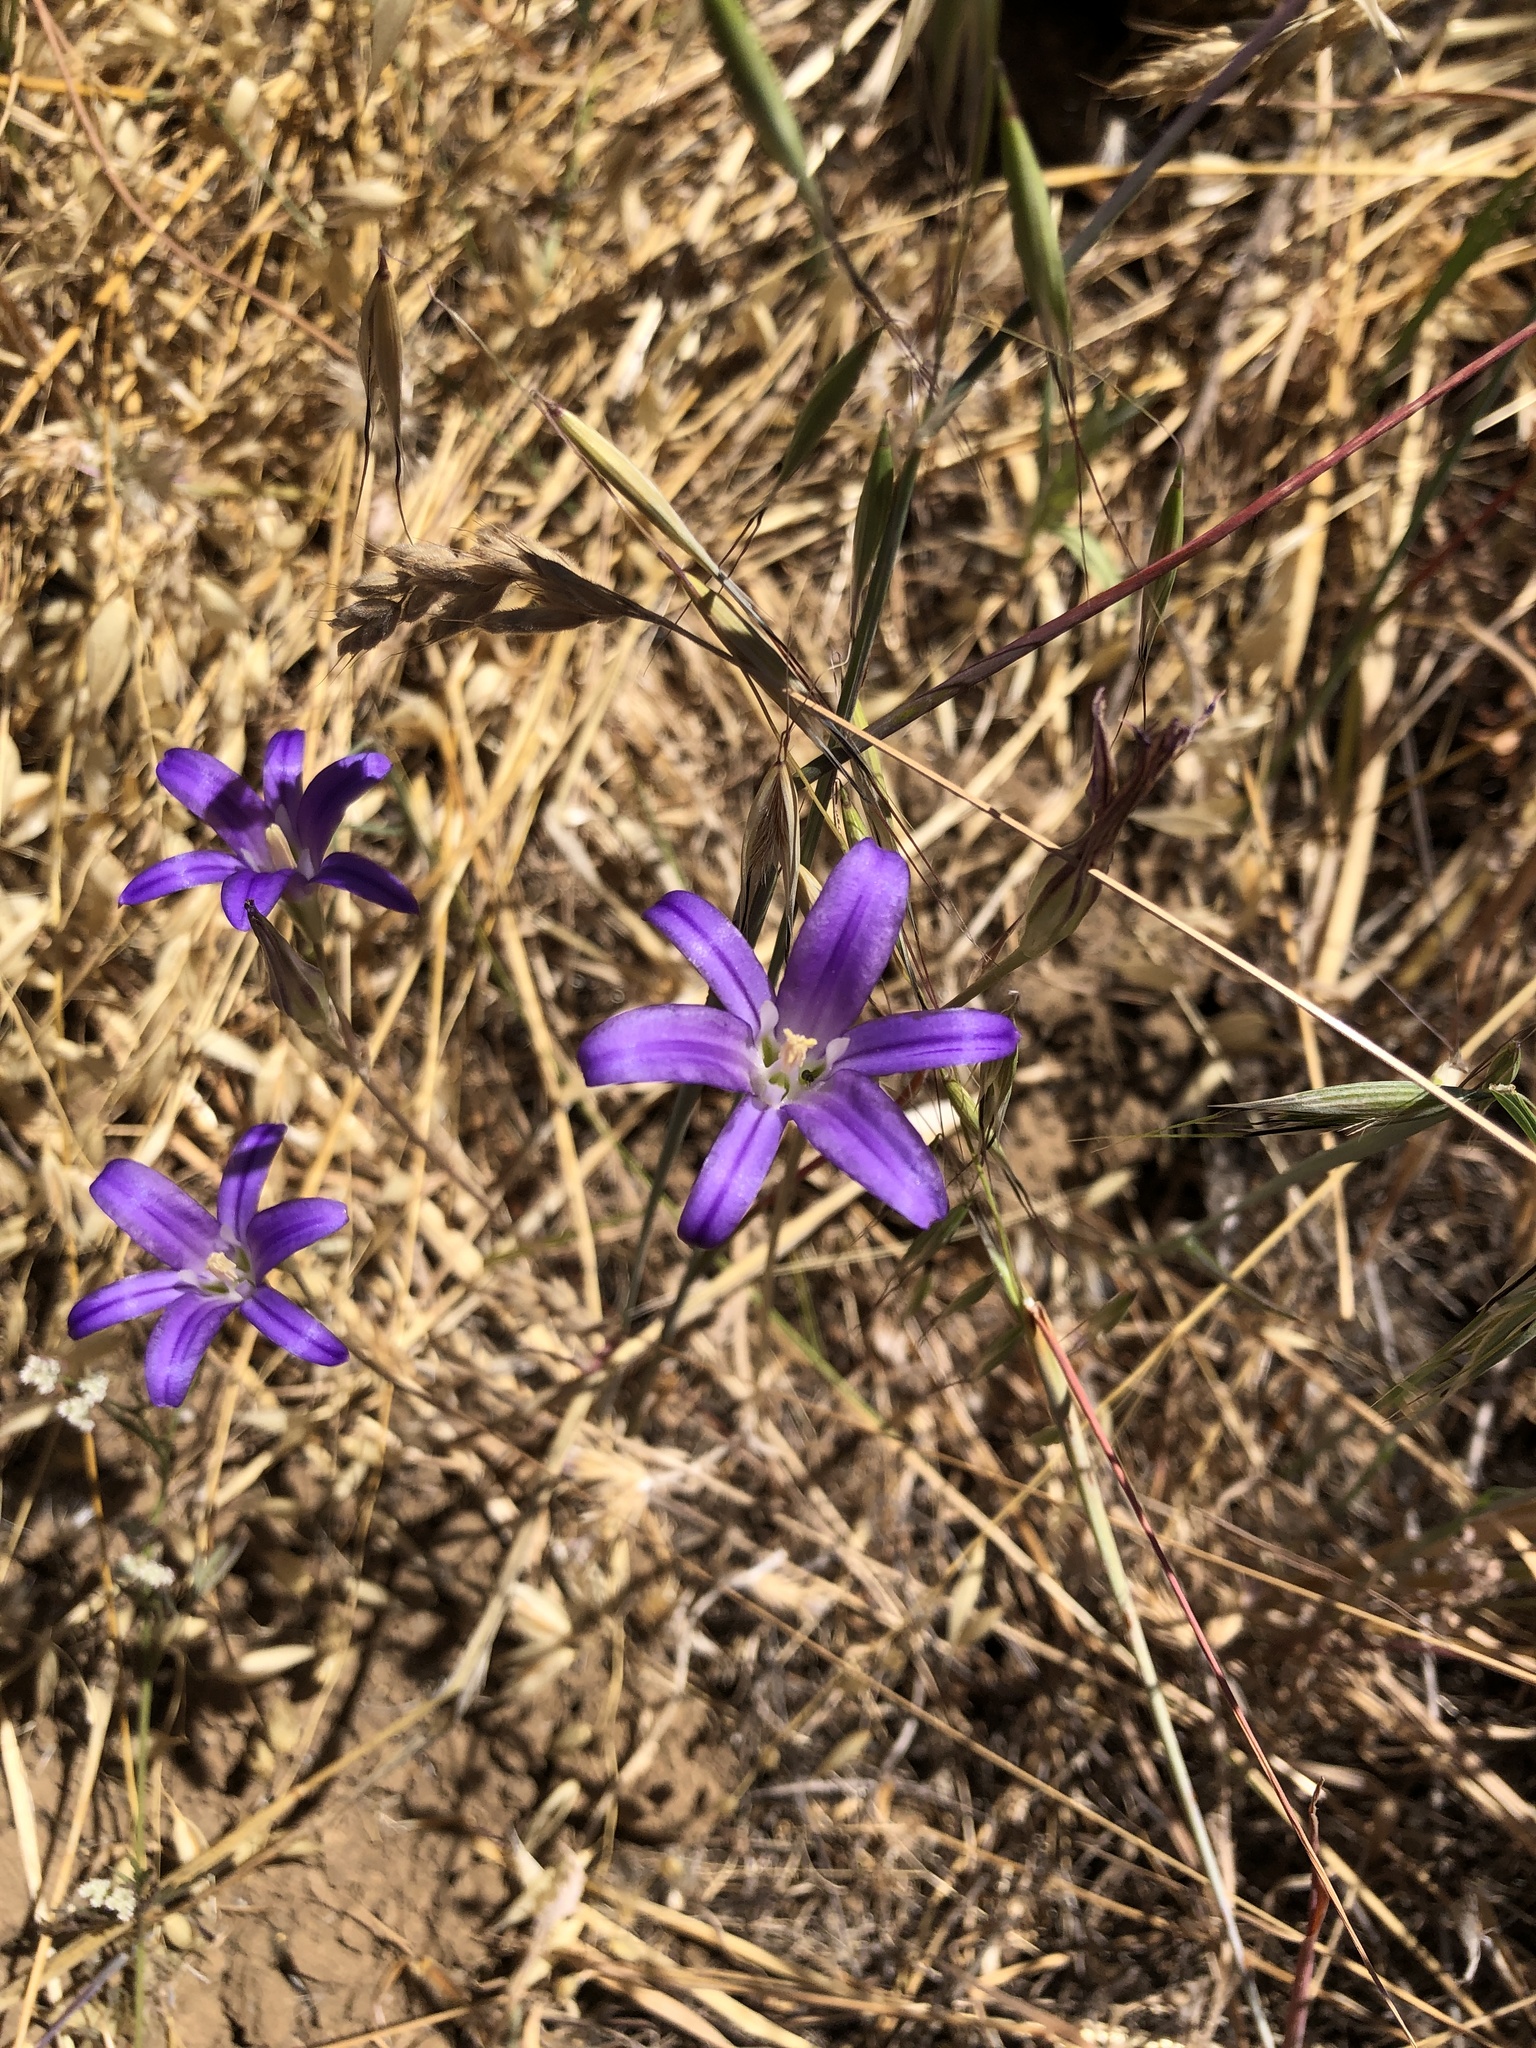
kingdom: Plantae
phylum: Tracheophyta
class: Liliopsida
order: Asparagales
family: Asparagaceae
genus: Brodiaea
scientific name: Brodiaea elegans
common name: Elegant cluster-lily
